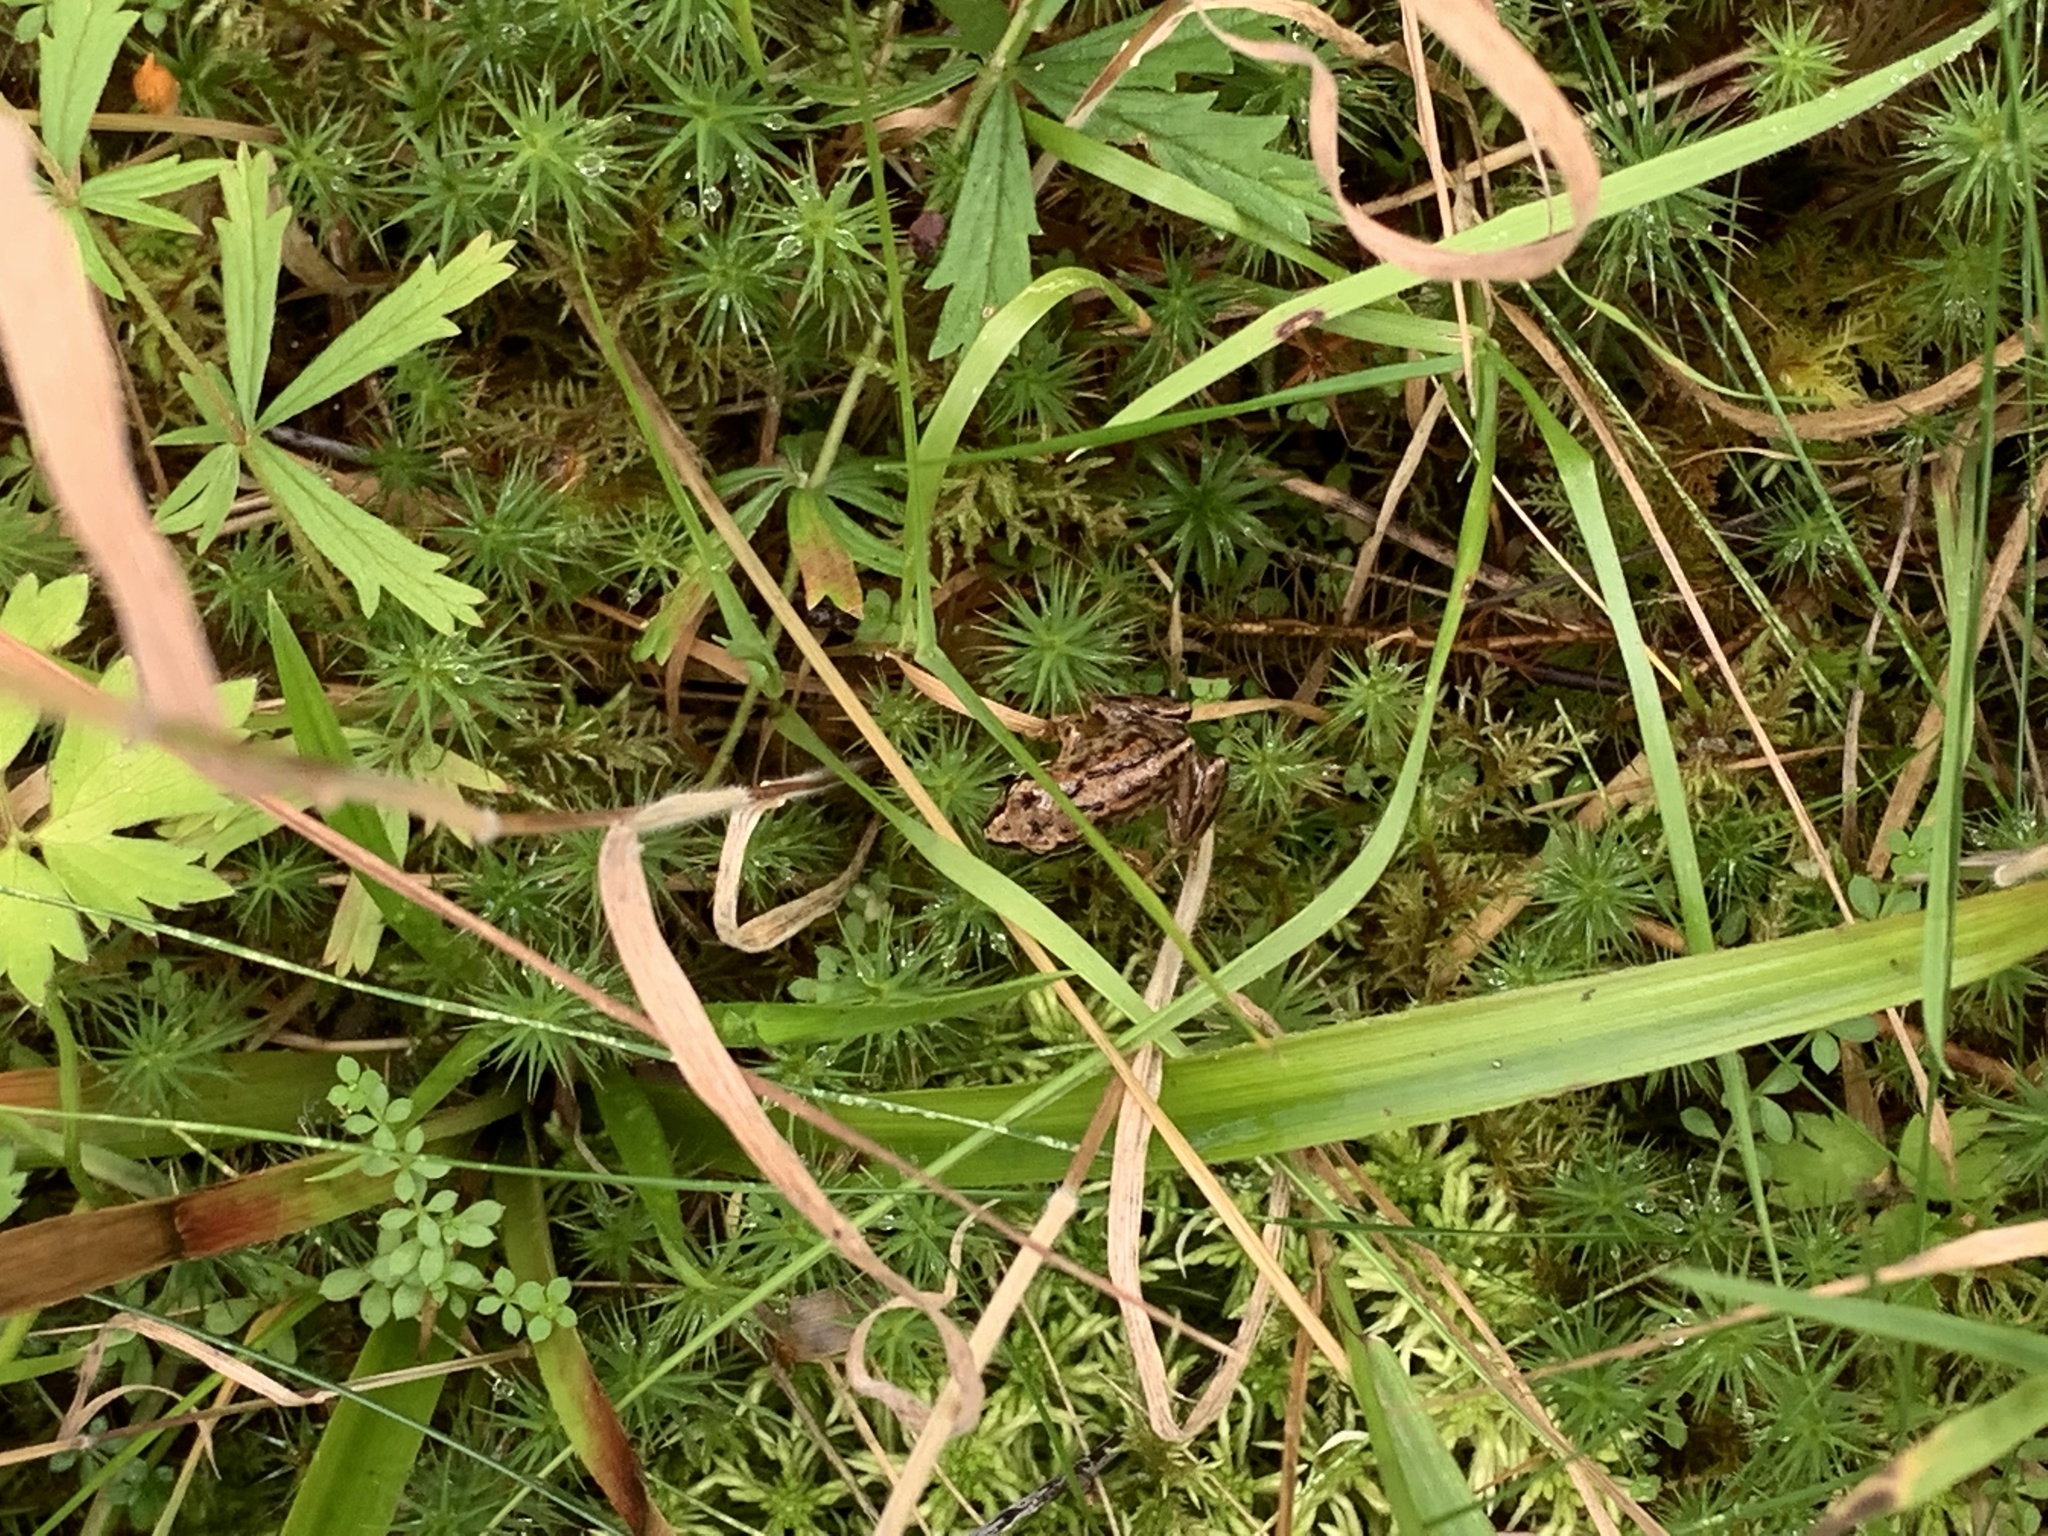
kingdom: Animalia
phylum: Chordata
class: Amphibia
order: Anura
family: Ranidae
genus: Rana
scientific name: Rana temporaria
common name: Common frog
